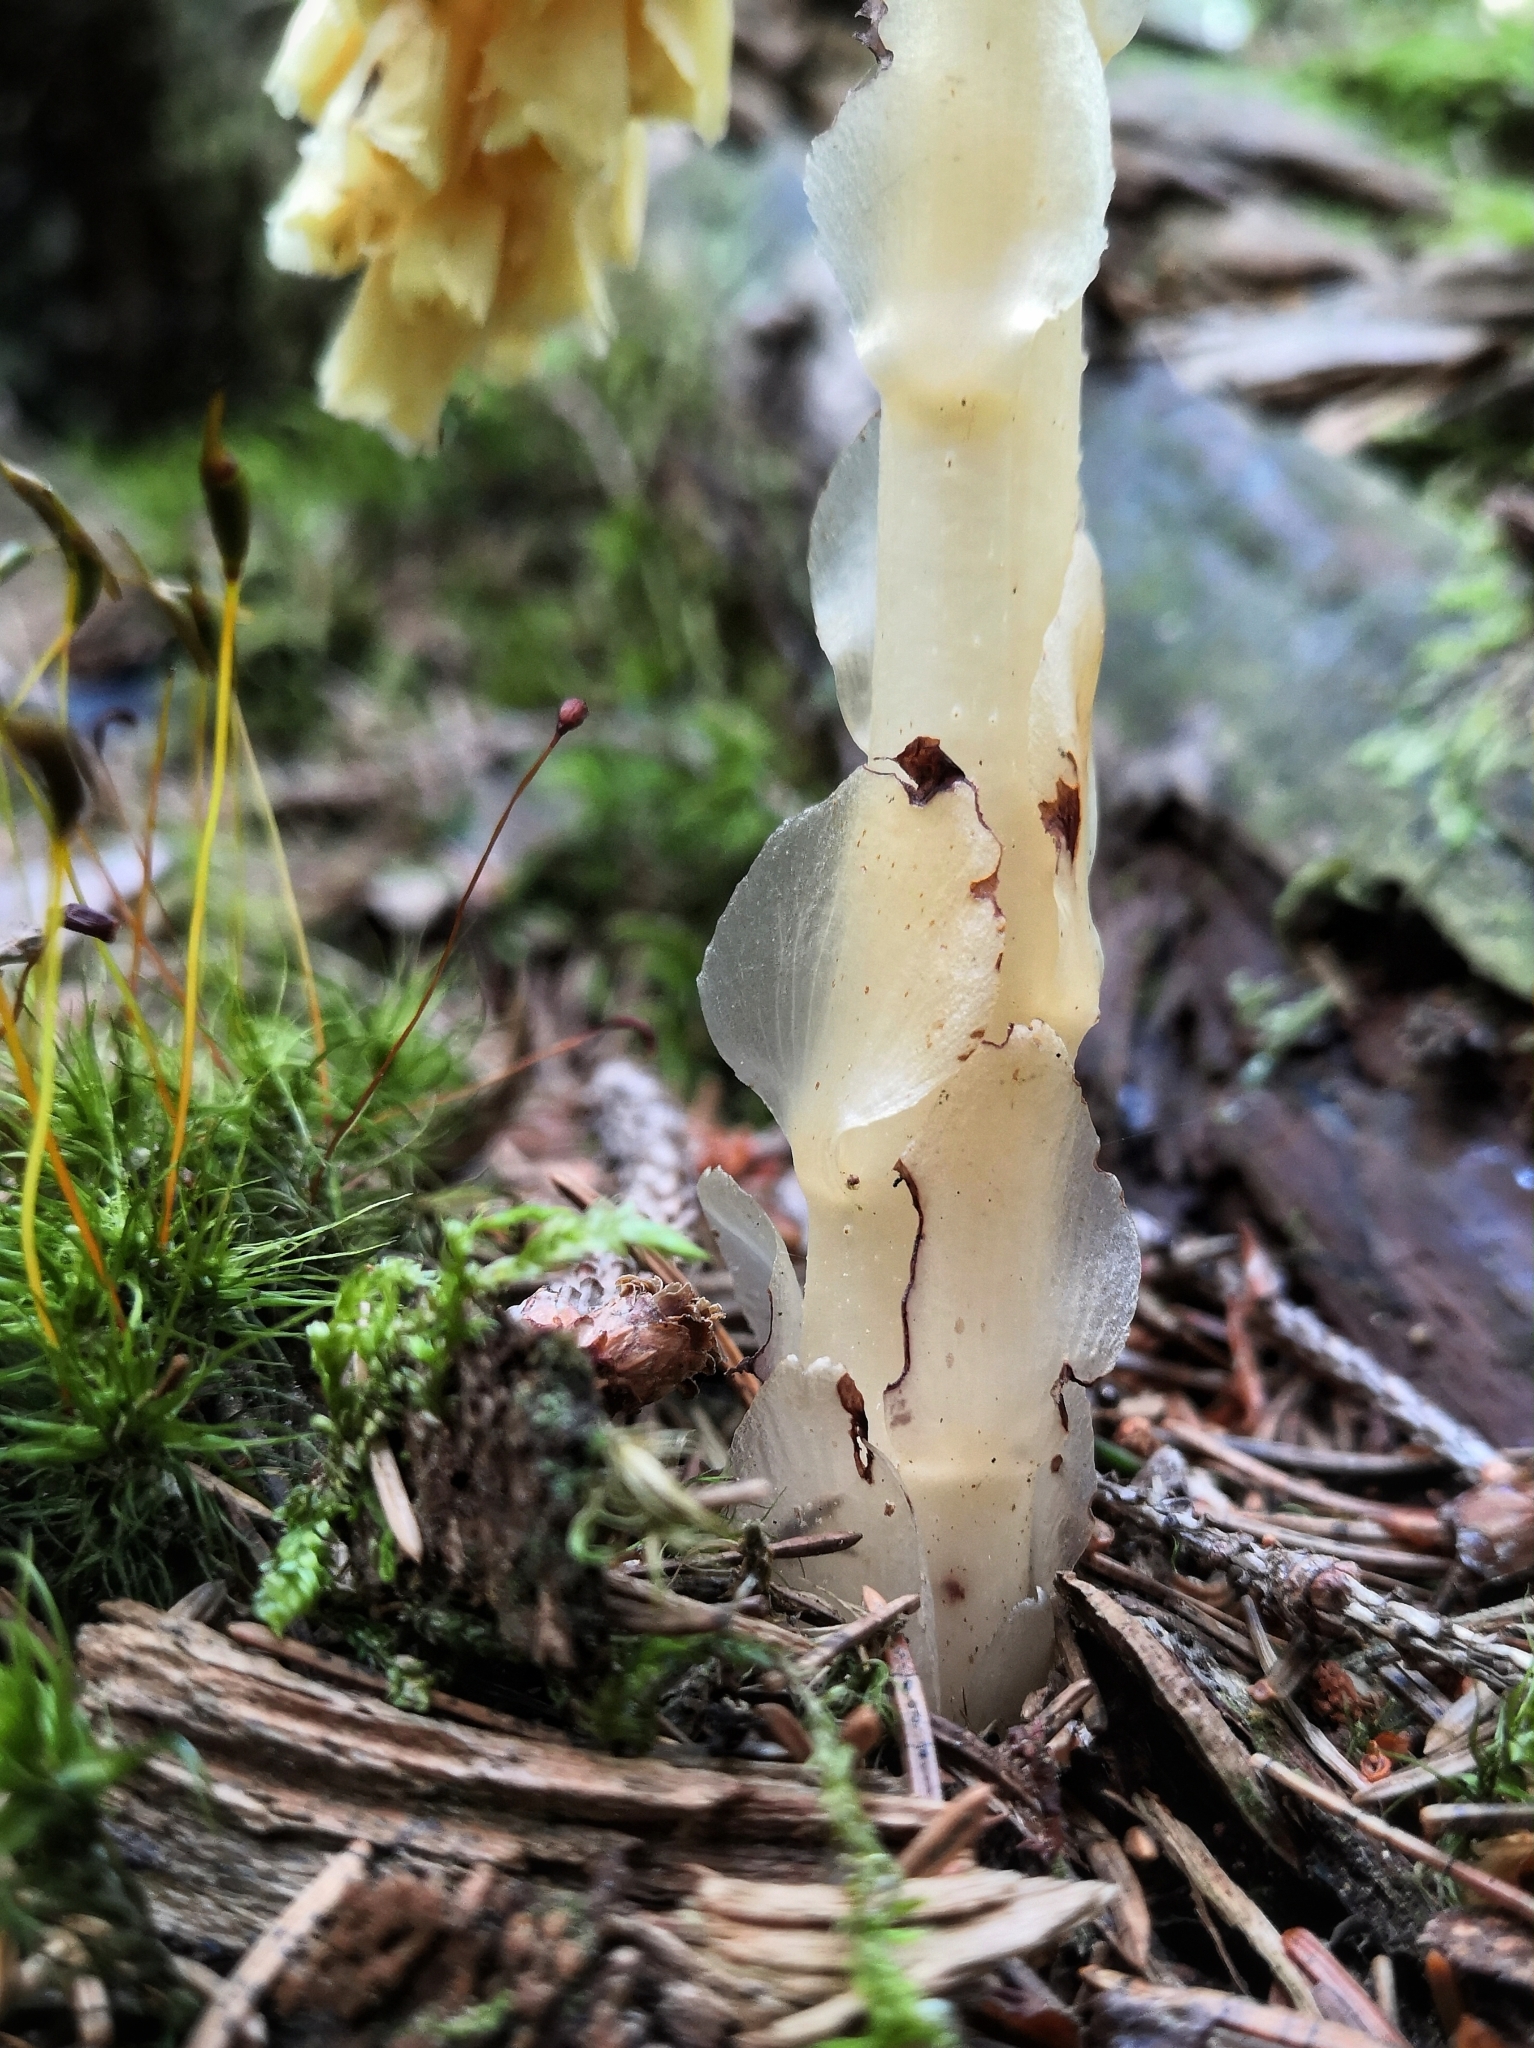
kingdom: Plantae
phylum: Tracheophyta
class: Magnoliopsida
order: Ericales
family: Ericaceae
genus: Hypopitys
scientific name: Hypopitys monotropa
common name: Yellow bird's-nest
